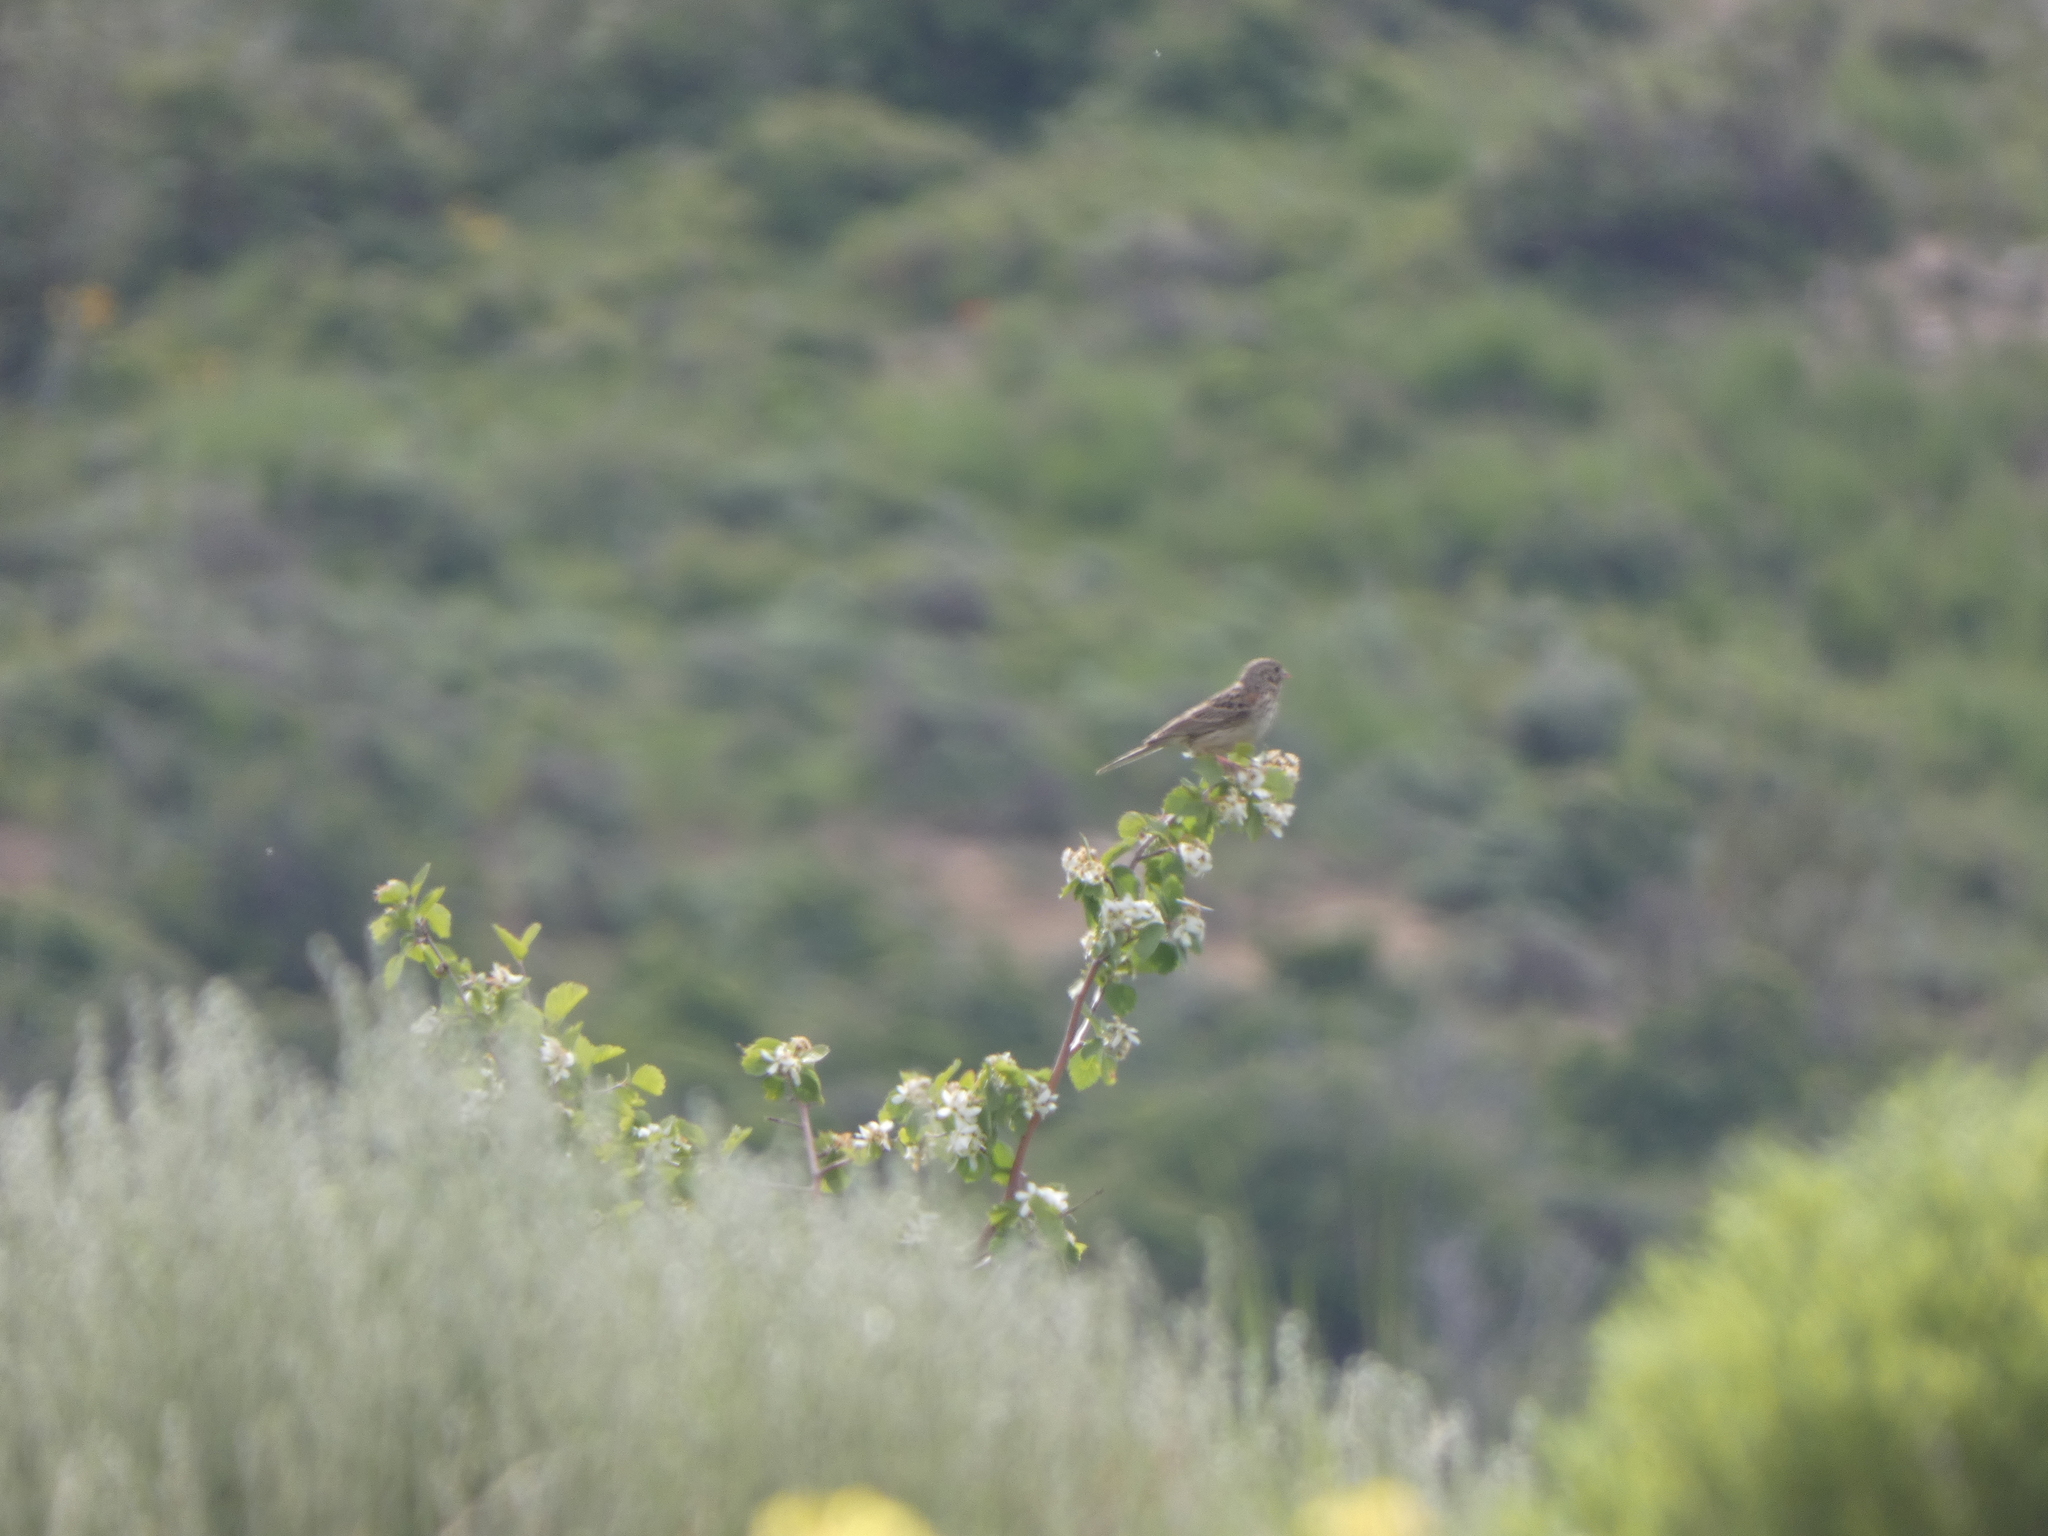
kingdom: Animalia
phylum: Chordata
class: Aves
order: Passeriformes
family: Passerellidae
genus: Pooecetes
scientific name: Pooecetes gramineus
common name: Vesper sparrow
